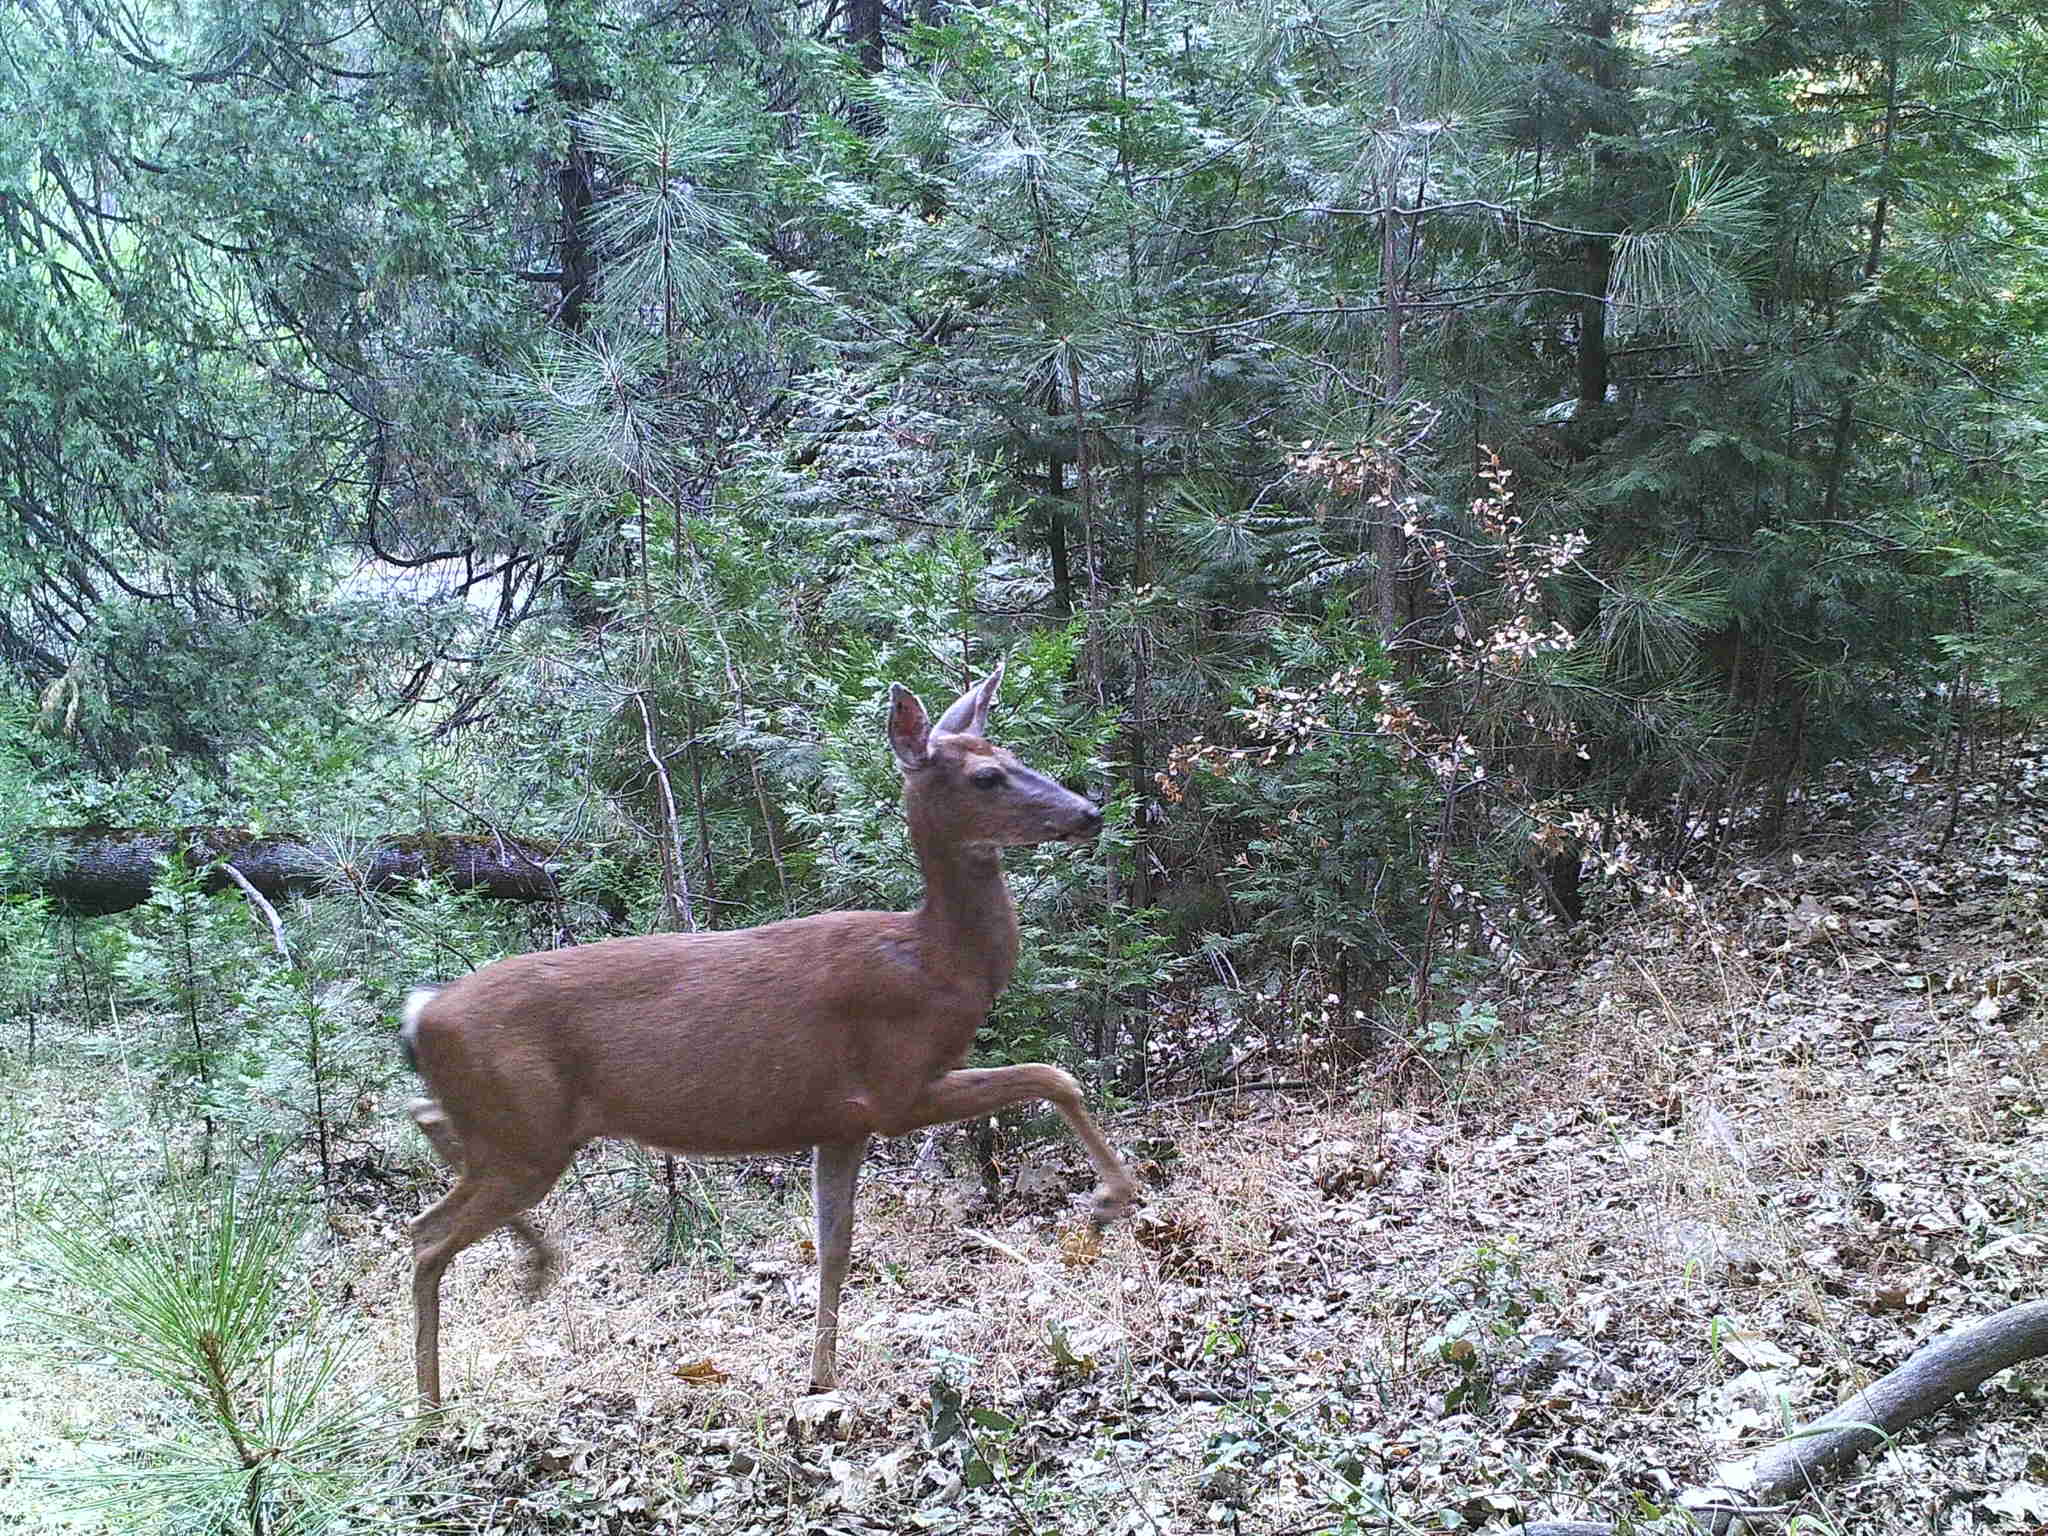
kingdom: Animalia
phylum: Chordata
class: Mammalia
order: Artiodactyla
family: Cervidae
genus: Odocoileus
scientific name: Odocoileus hemionus
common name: Mule deer
